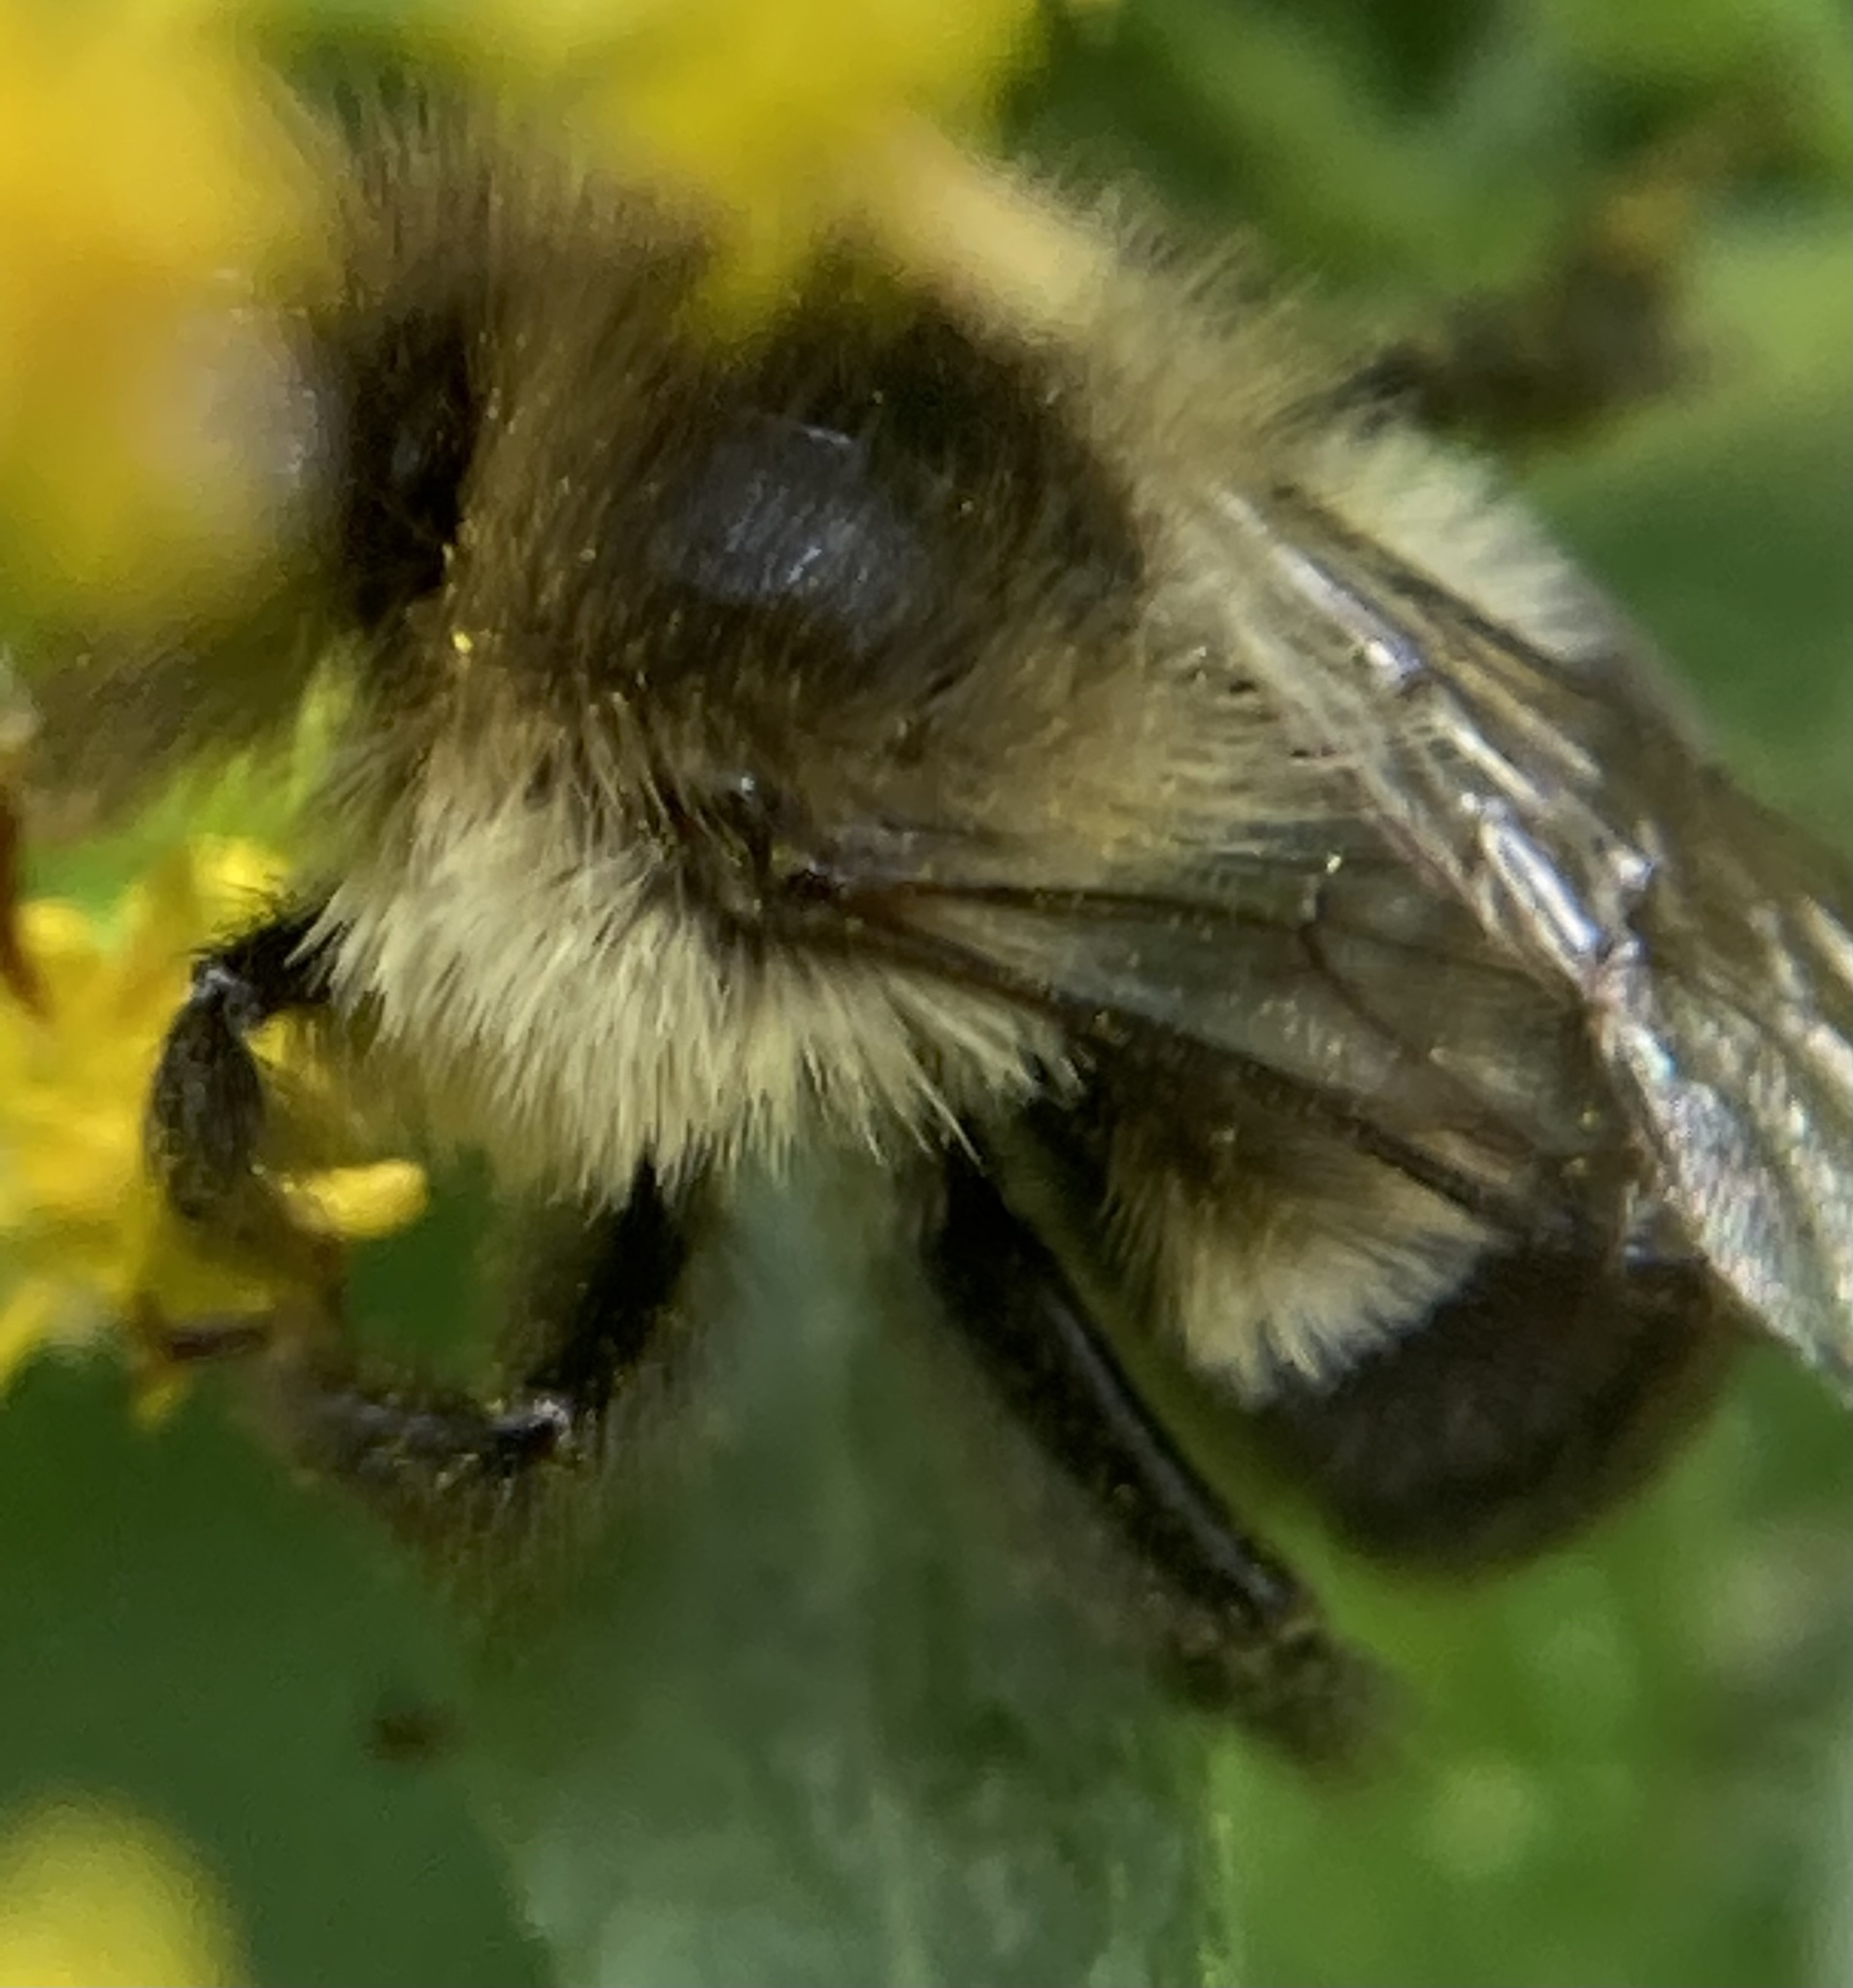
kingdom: Animalia
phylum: Arthropoda
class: Insecta
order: Hymenoptera
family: Apidae
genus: Bombus
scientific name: Bombus impatiens
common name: Common eastern bumble bee
